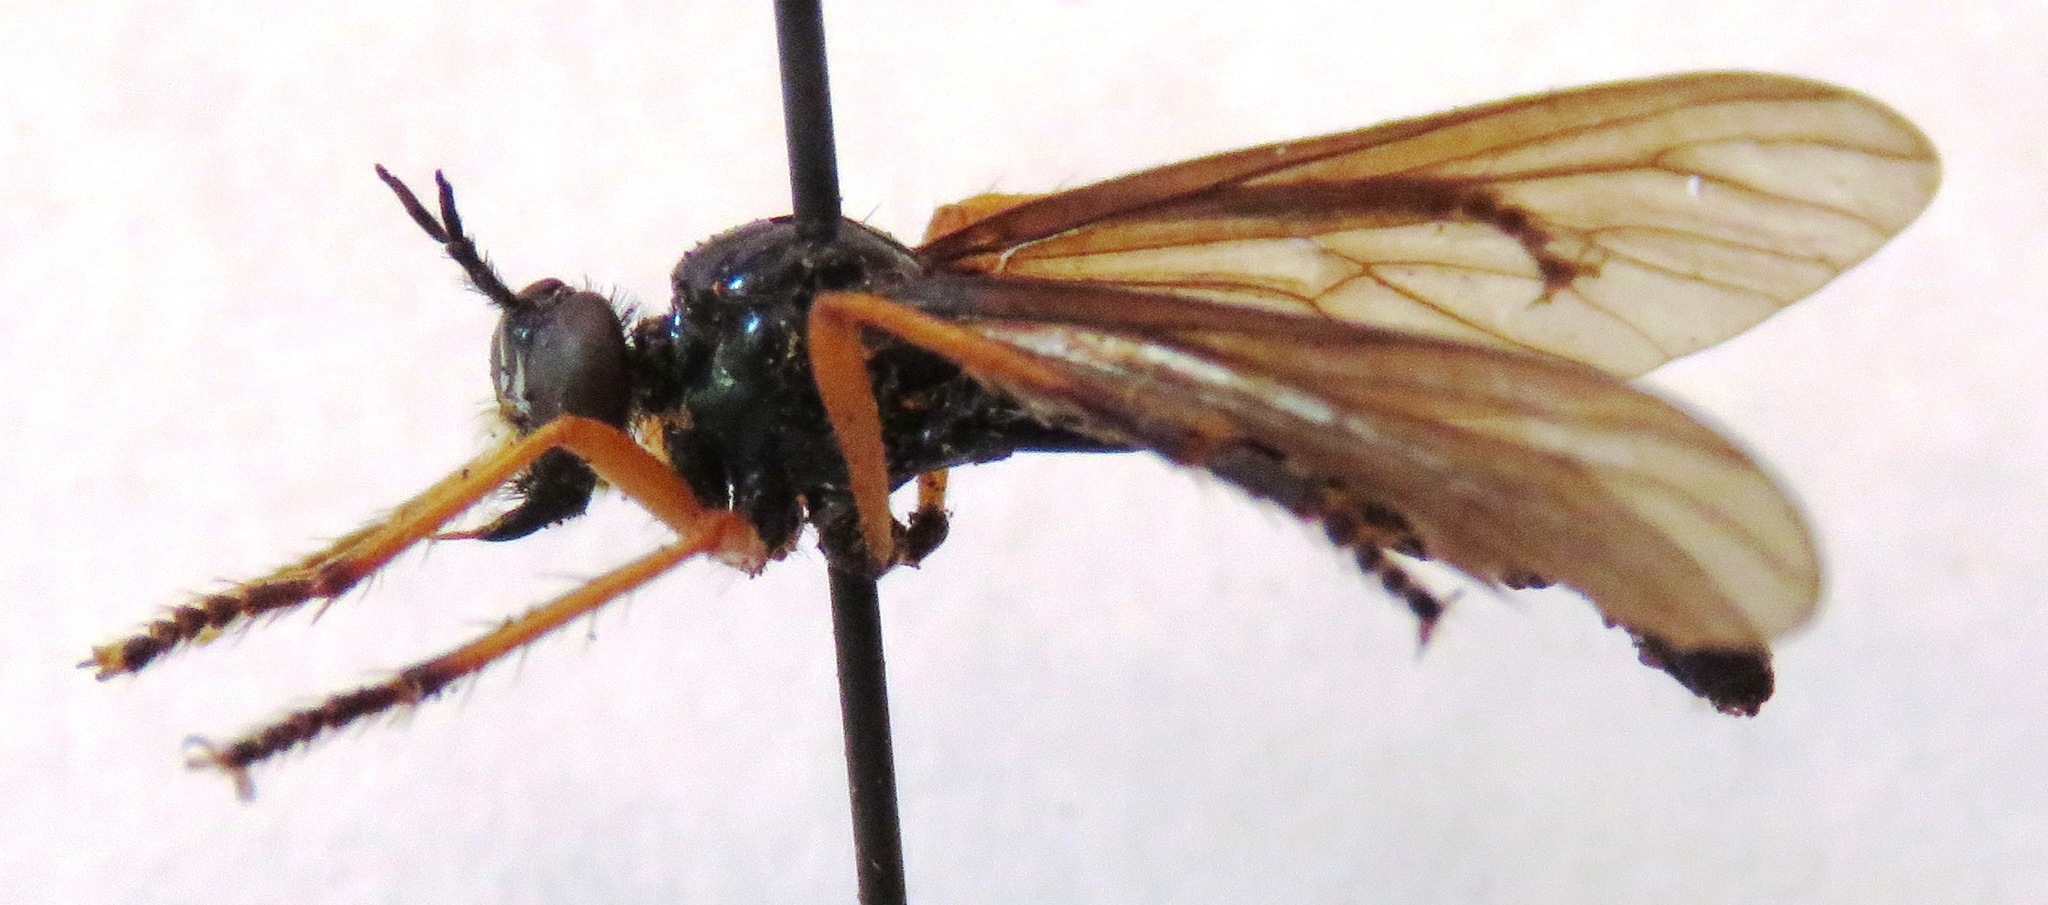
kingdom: Animalia
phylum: Arthropoda
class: Insecta
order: Diptera
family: Asilidae
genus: Dioctria
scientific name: Dioctria oelandica
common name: Orange-legged robberfly
